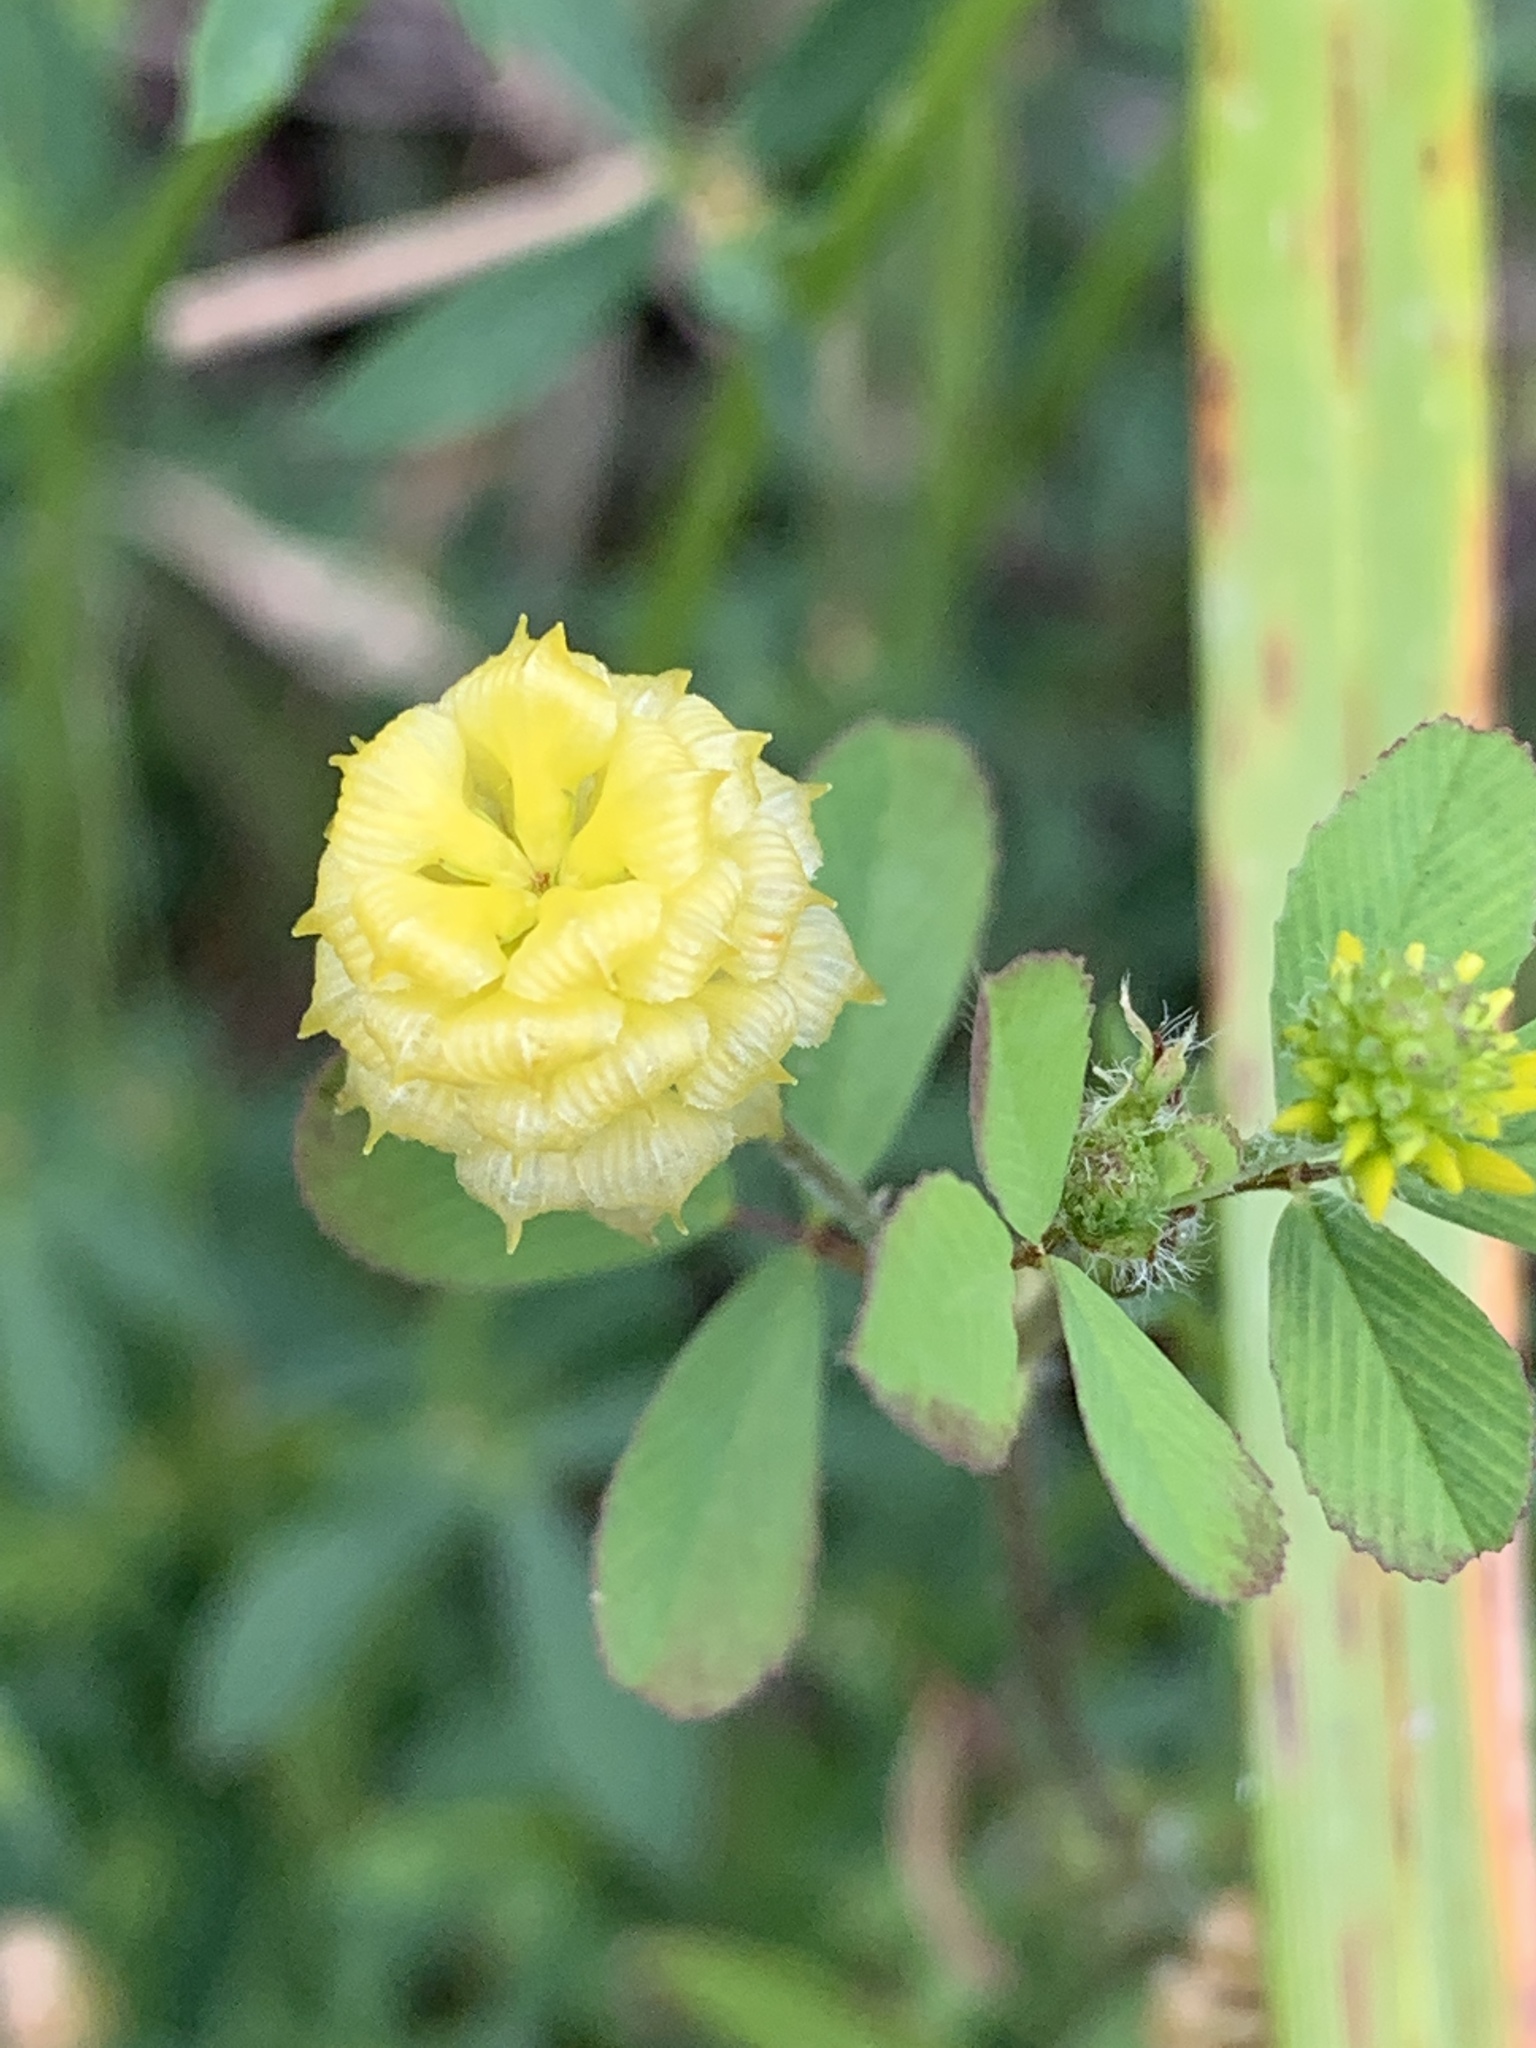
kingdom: Plantae
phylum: Tracheophyta
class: Magnoliopsida
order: Fabales
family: Fabaceae
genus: Trifolium
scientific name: Trifolium campestre
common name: Field clover
